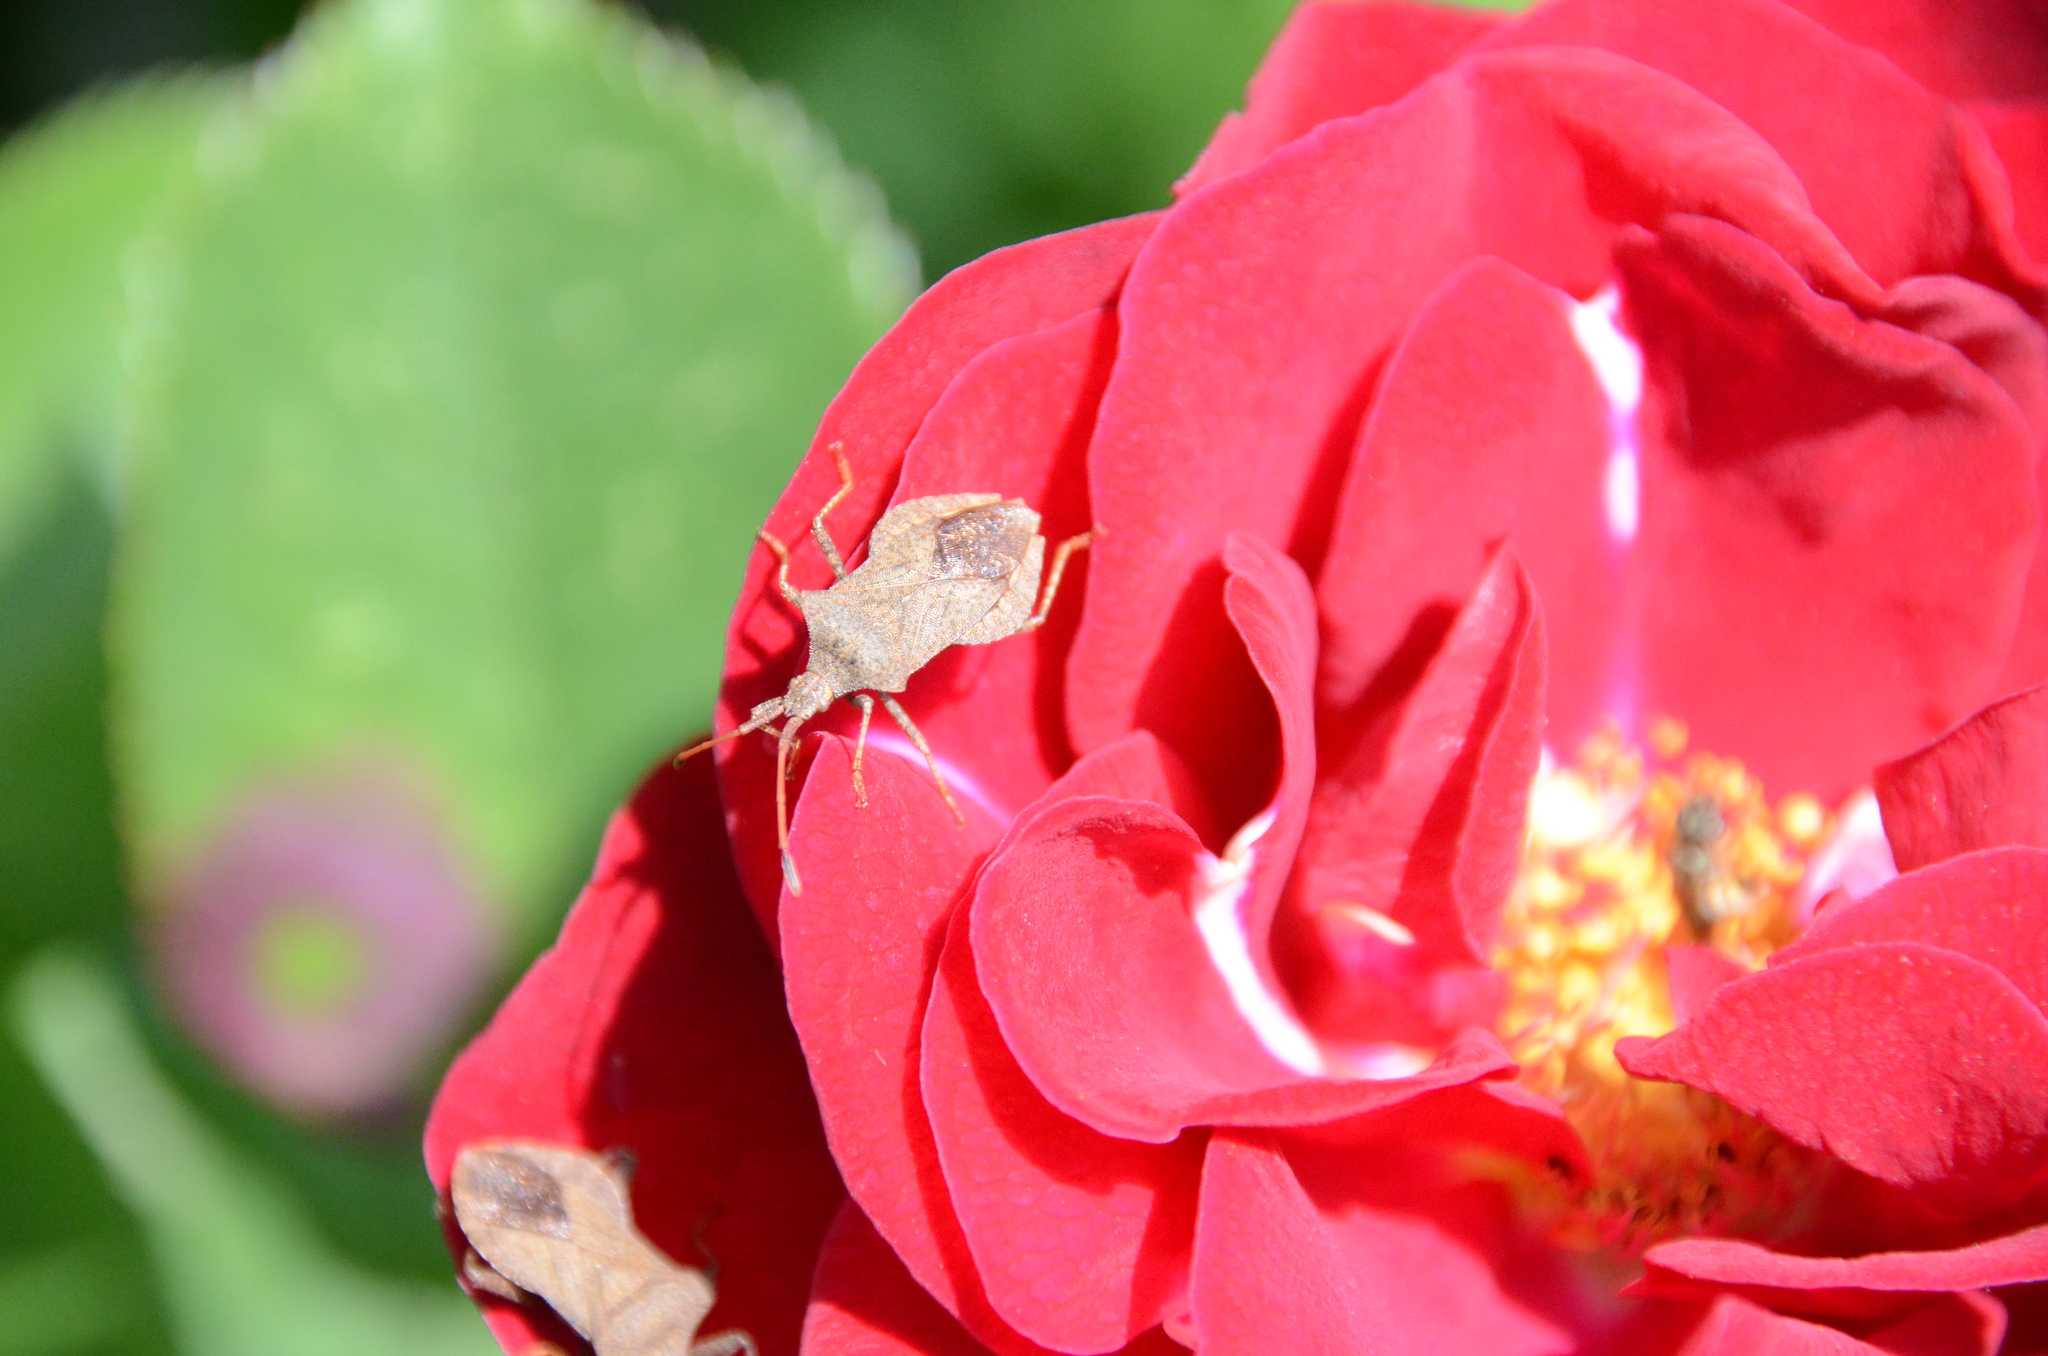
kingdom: Animalia
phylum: Arthropoda
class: Insecta
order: Hemiptera
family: Coreidae
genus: Coreus
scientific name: Coreus marginatus
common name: Dock bug
